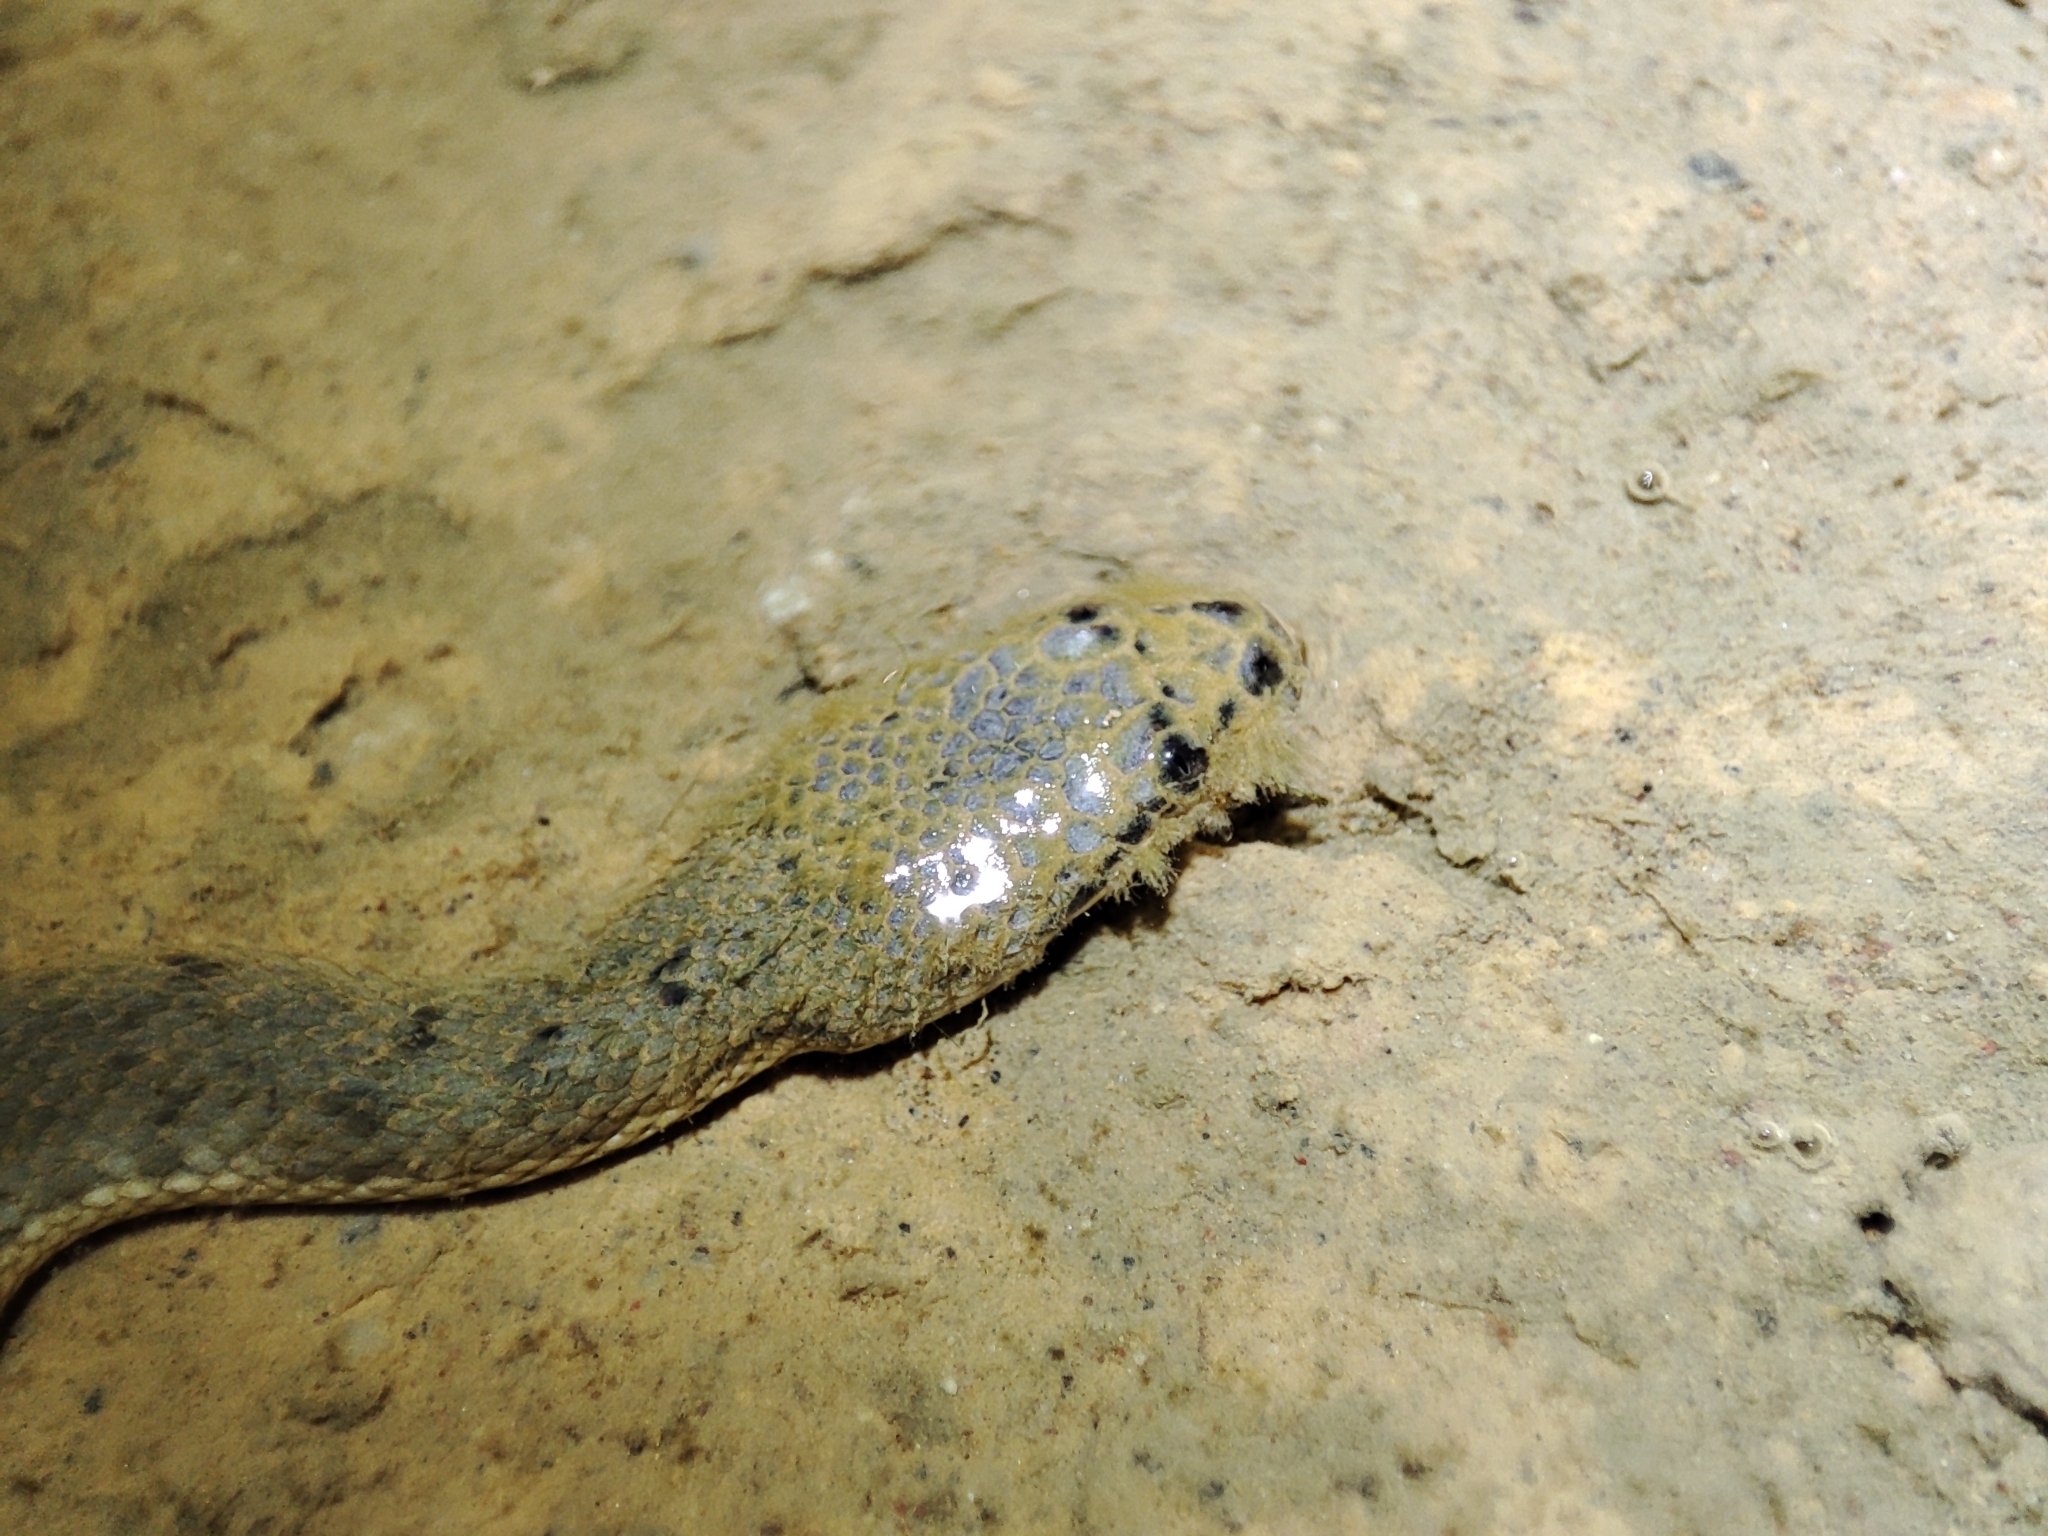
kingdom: Animalia
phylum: Chordata
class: Squamata
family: Homalopsidae
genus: Cerberus
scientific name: Cerberus schneiderii
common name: Southeast asian bockadam
